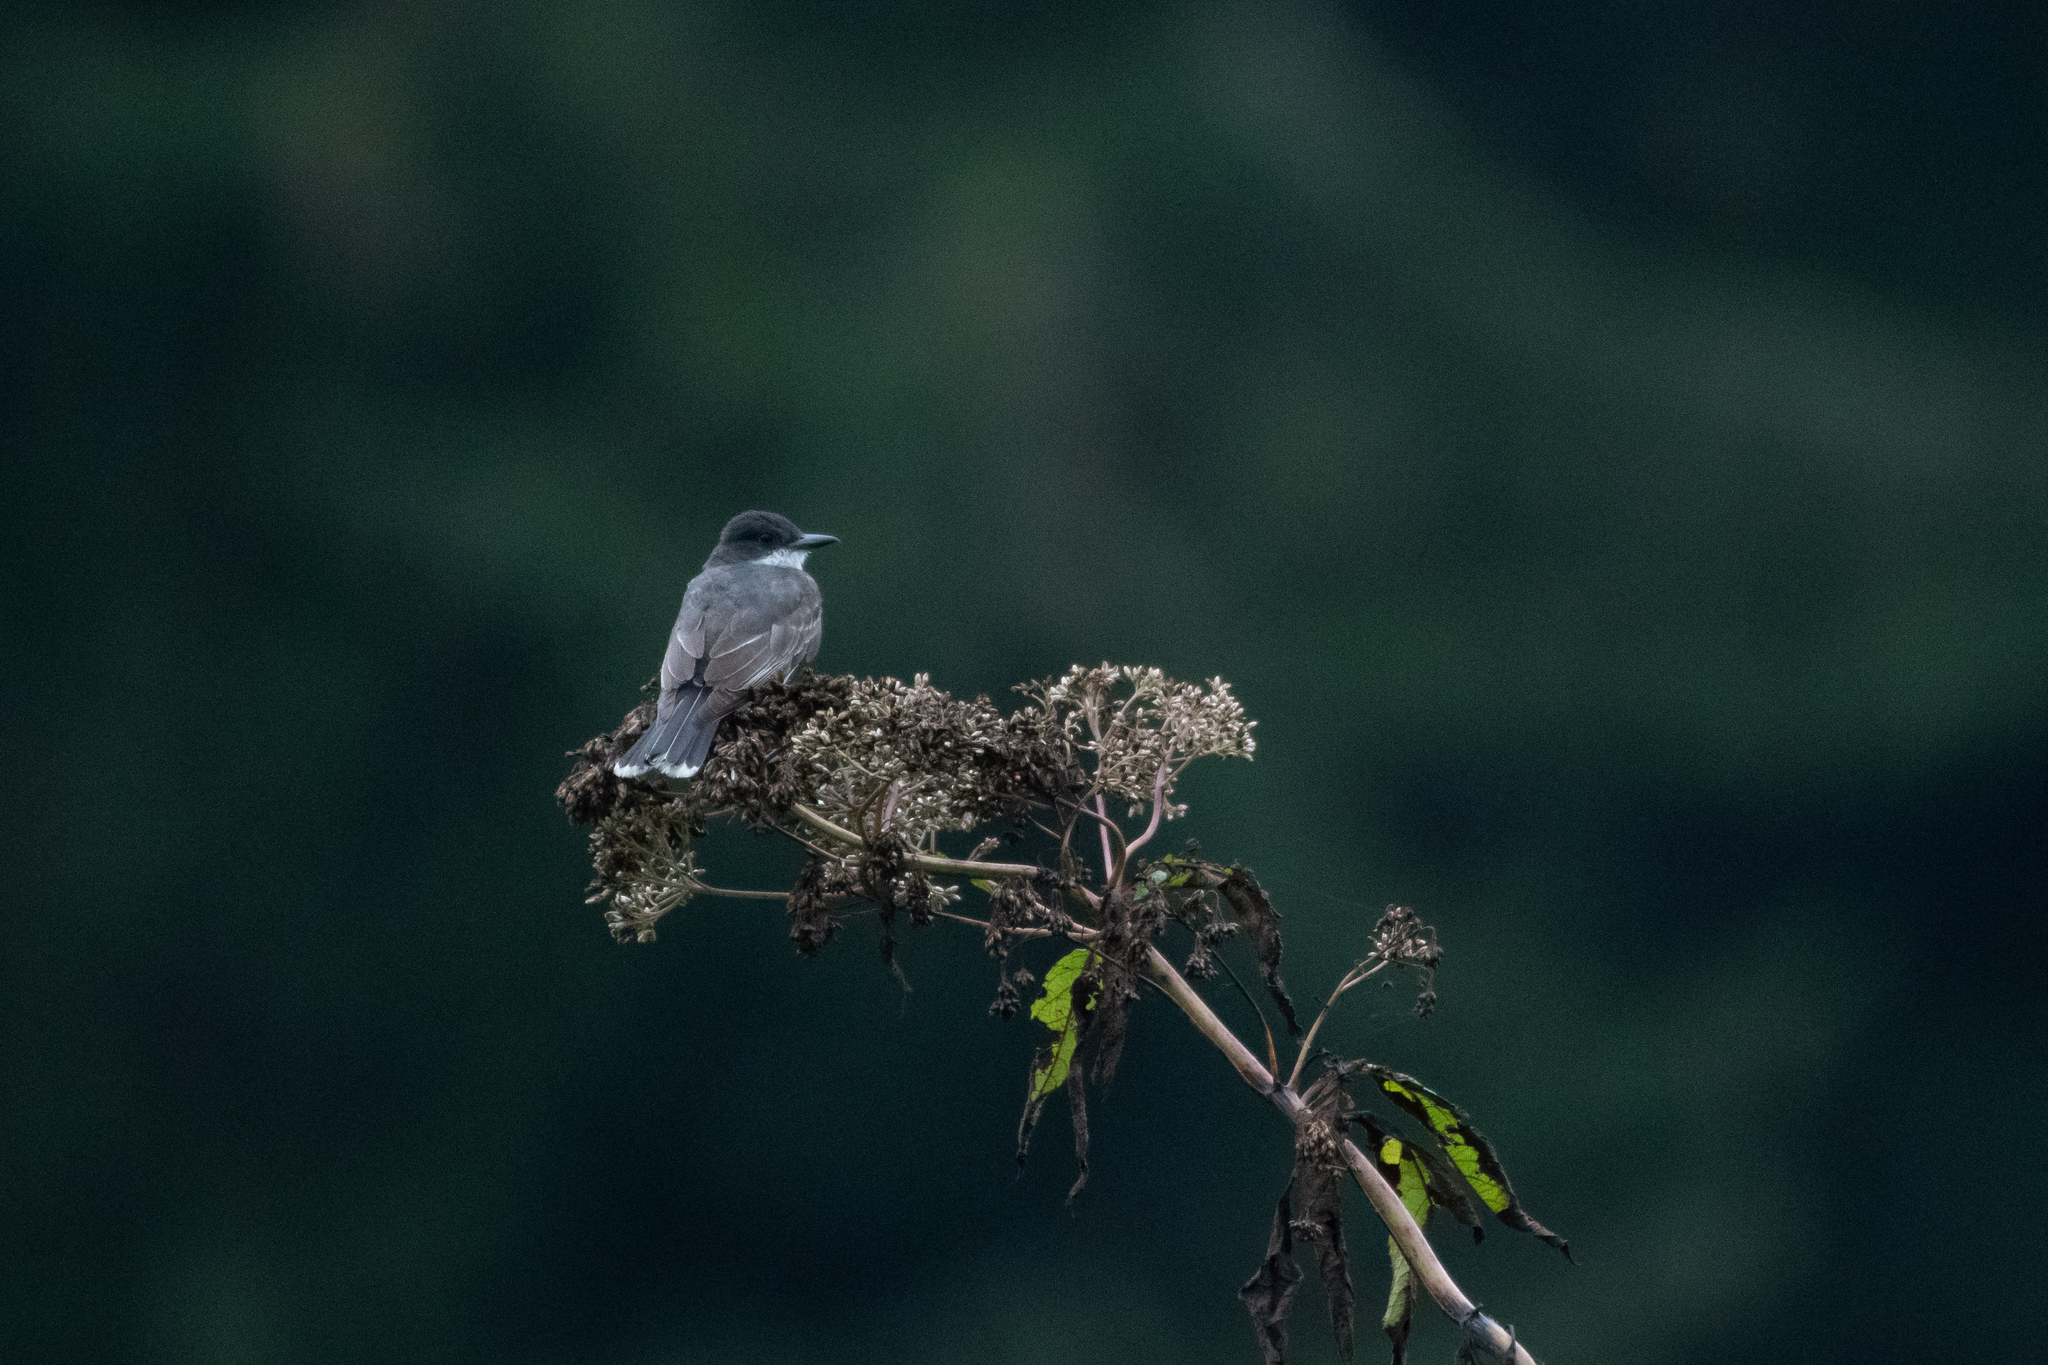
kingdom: Animalia
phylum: Chordata
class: Aves
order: Passeriformes
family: Tyrannidae
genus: Tyrannus
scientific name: Tyrannus tyrannus
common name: Eastern kingbird
